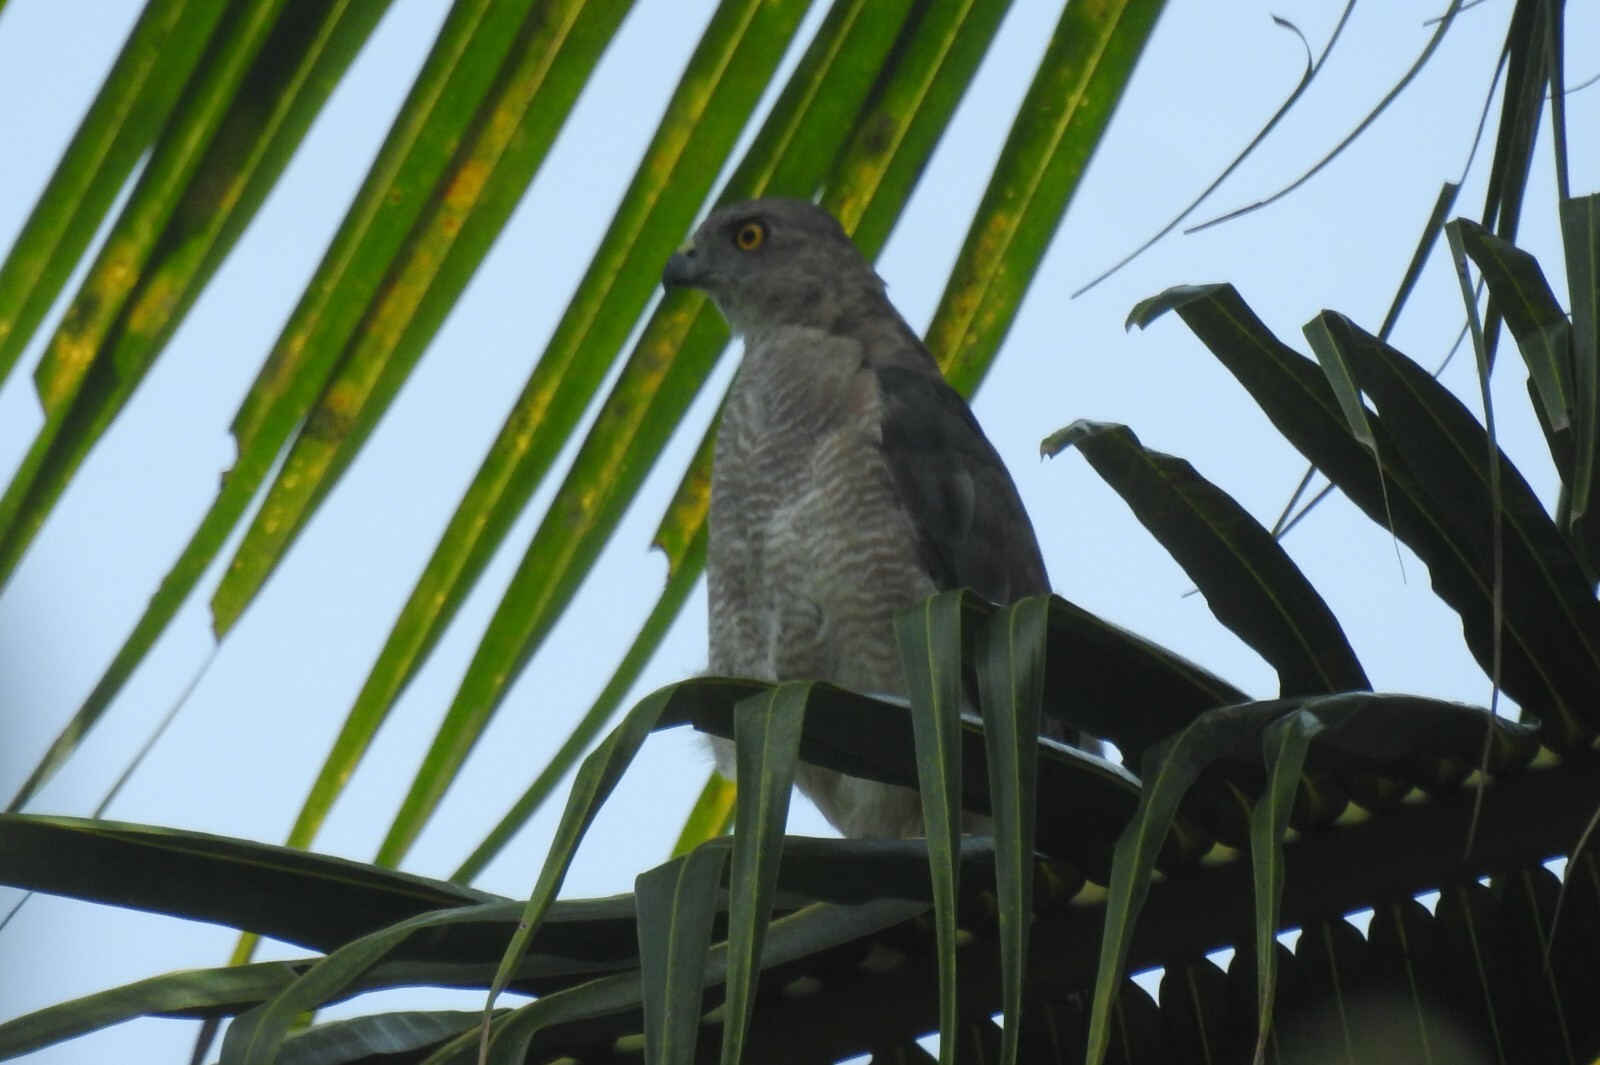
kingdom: Animalia
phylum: Chordata
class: Aves
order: Accipitriformes
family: Accipitridae
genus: Accipiter
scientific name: Accipiter badius
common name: Shikra
